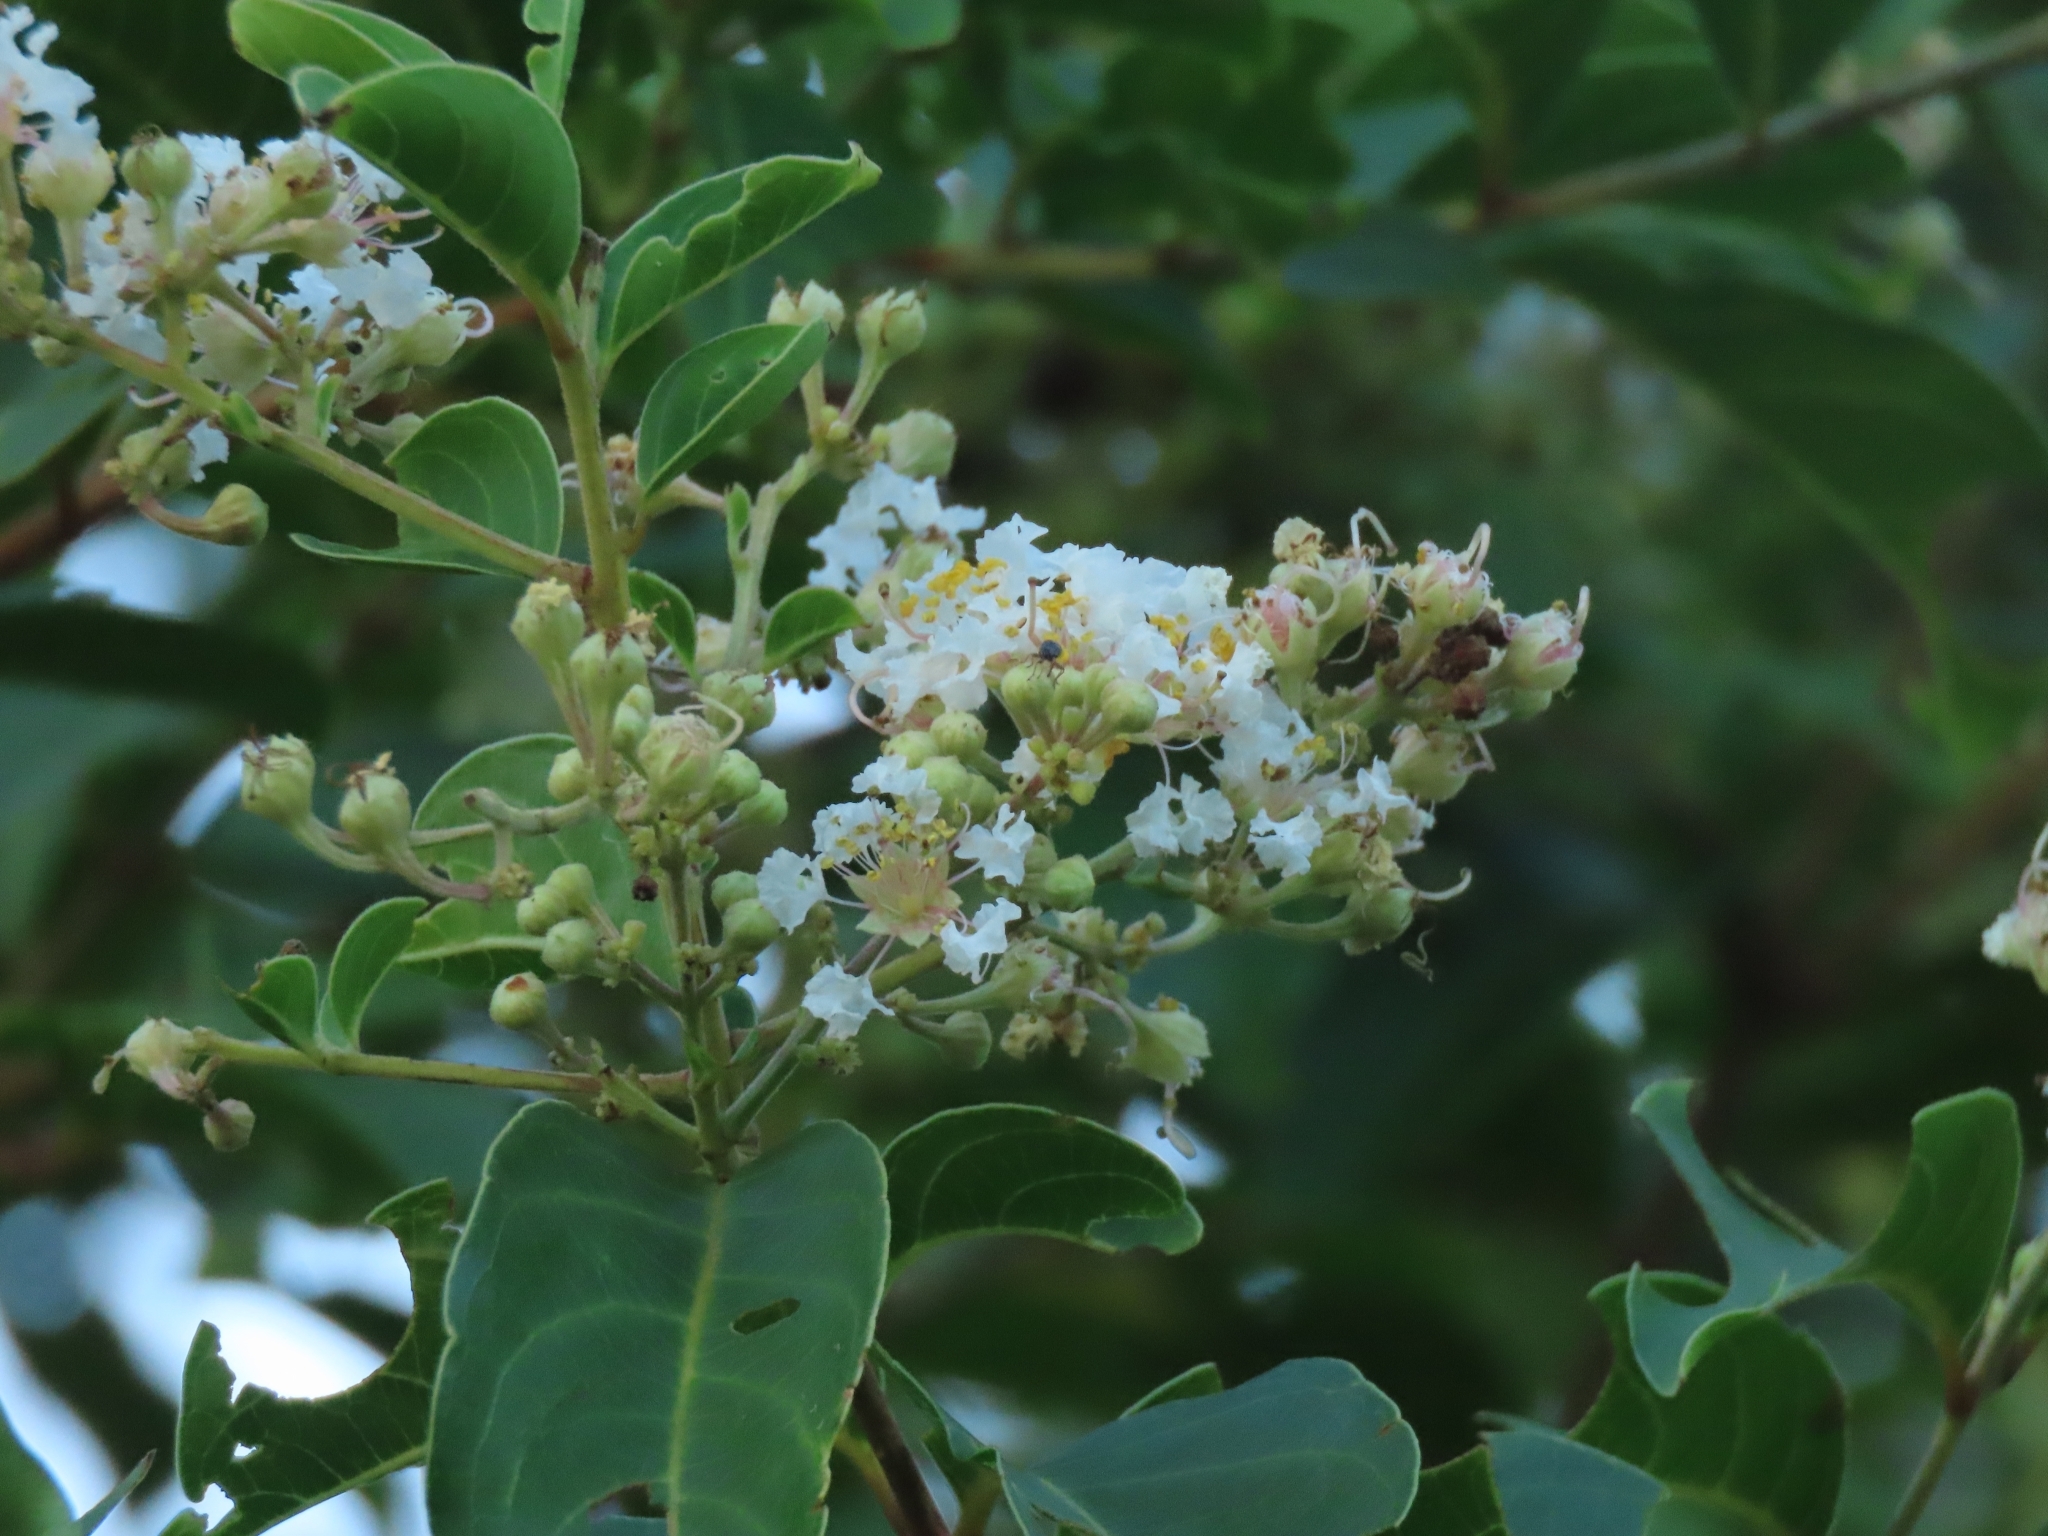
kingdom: Plantae
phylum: Tracheophyta
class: Magnoliopsida
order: Myrtales
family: Lythraceae
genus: Lagerstroemia
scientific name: Lagerstroemia subcostata
